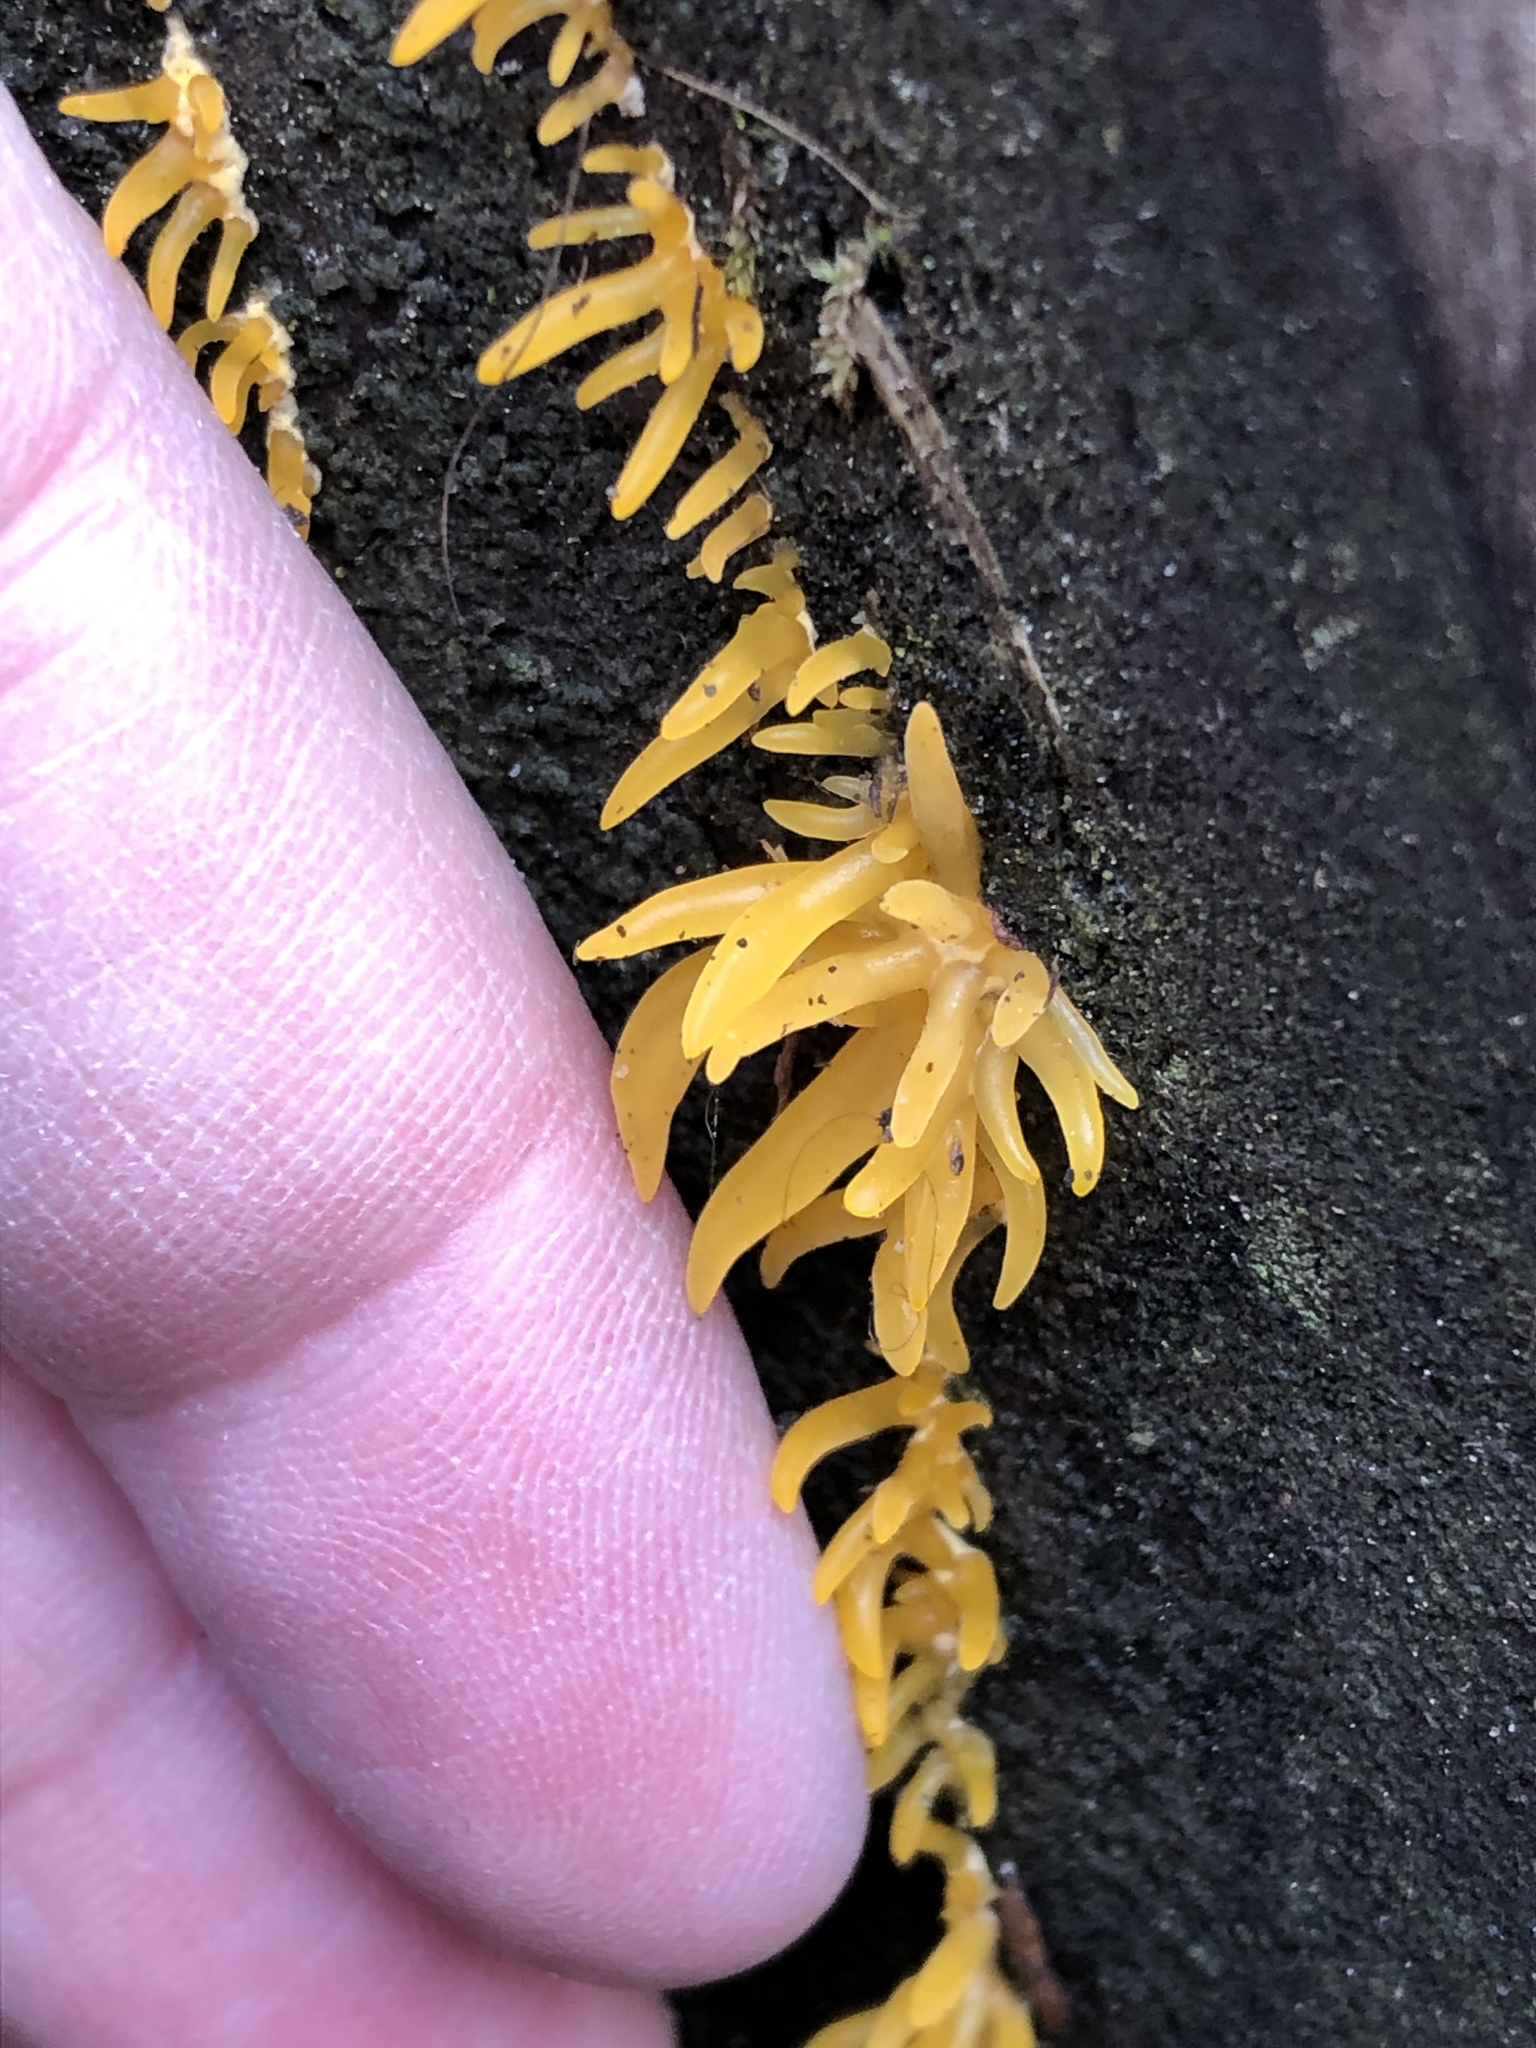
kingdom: Fungi
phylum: Basidiomycota
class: Dacrymycetes
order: Dacrymycetales
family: Dacrymycetaceae
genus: Calocera
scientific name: Calocera cornea
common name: Small stagshorn
